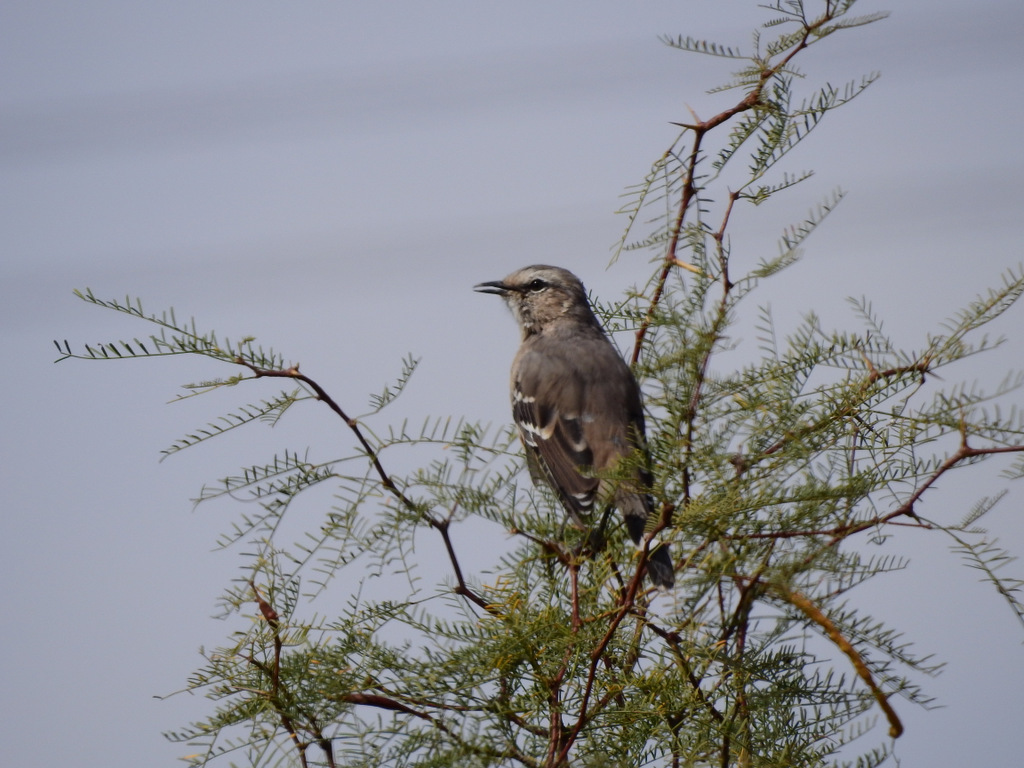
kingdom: Animalia
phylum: Chordata
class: Aves
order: Passeriformes
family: Mimidae
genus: Mimus
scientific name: Mimus patagonicus
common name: Patagonian mockingbird
